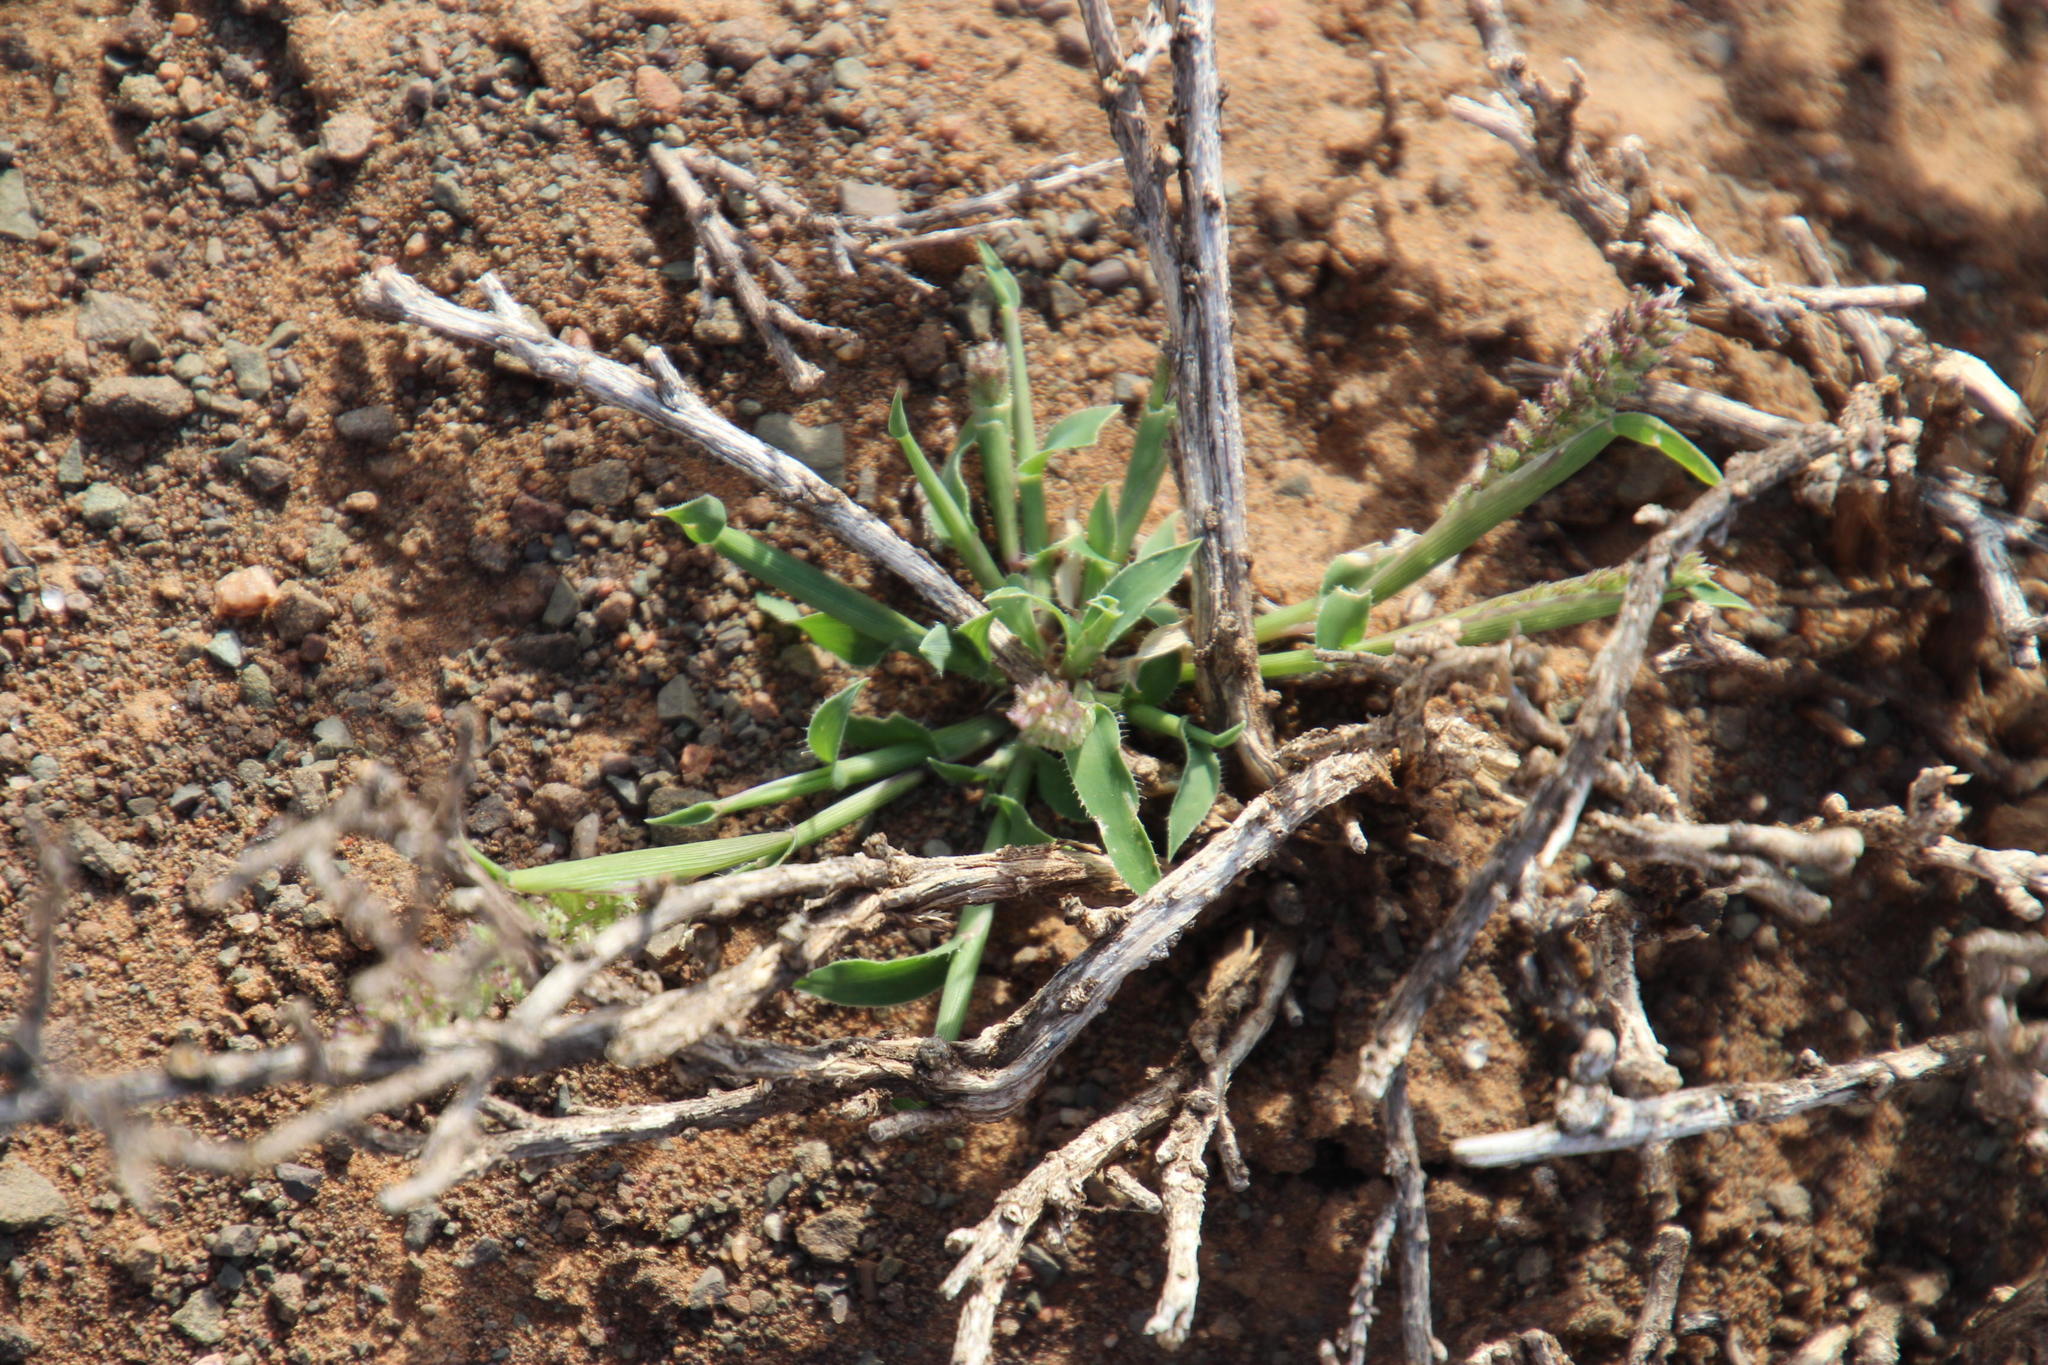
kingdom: Plantae
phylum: Tracheophyta
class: Liliopsida
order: Poales
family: Poaceae
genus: Tragus
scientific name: Tragus berteronianus
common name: African bur-grass
